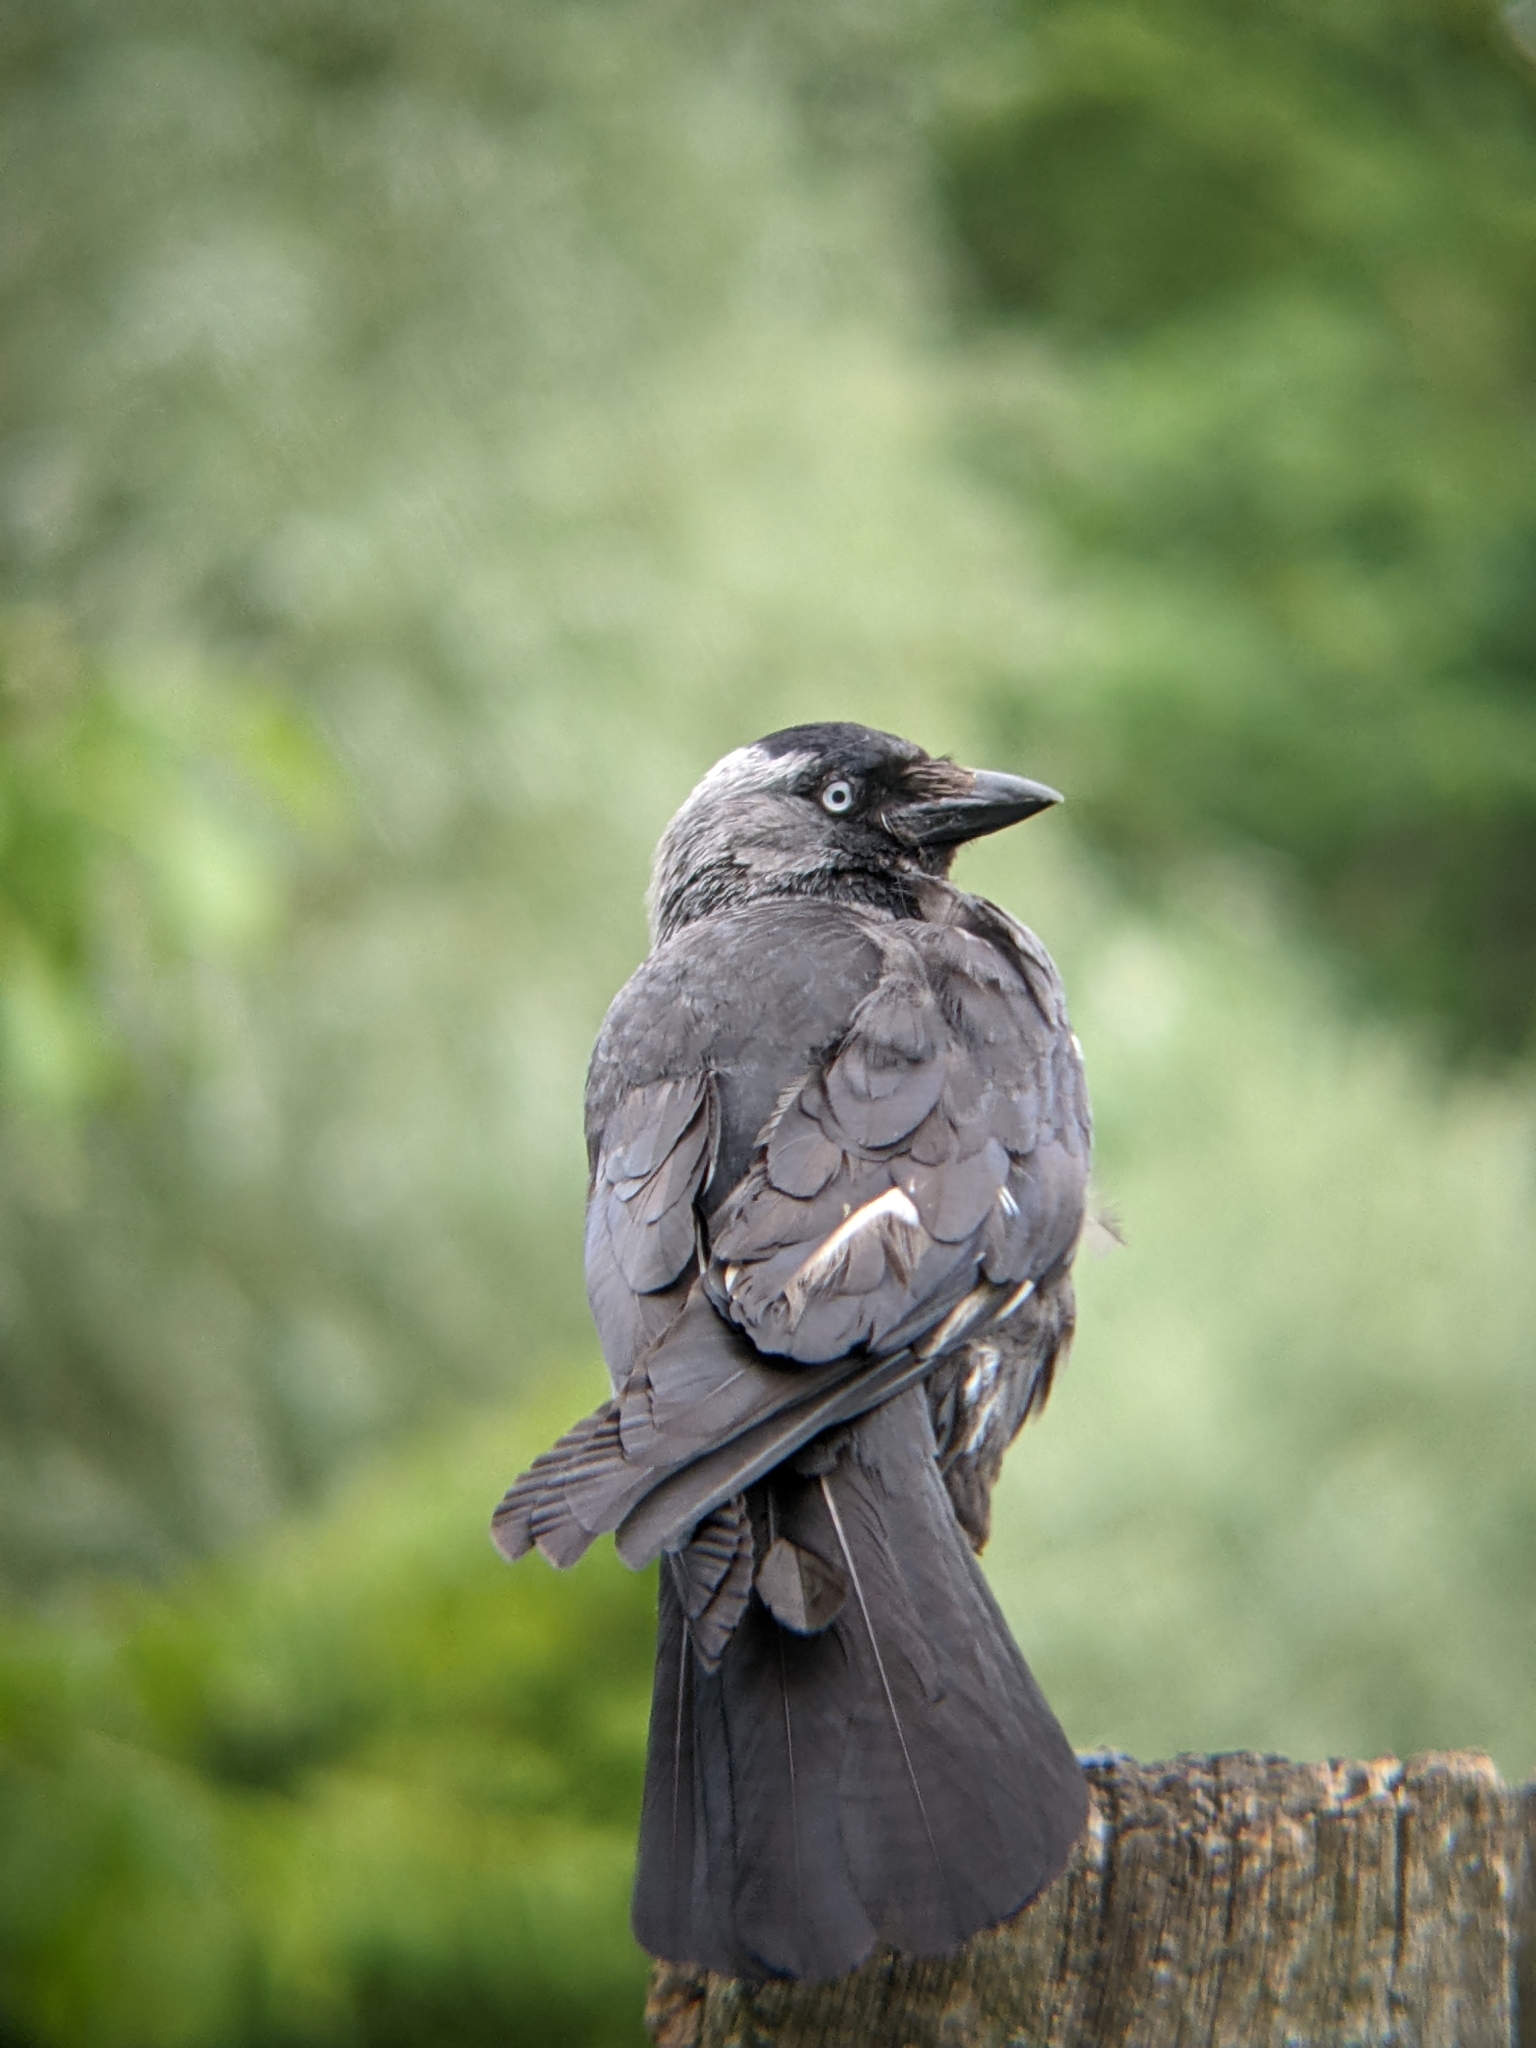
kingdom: Animalia
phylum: Chordata
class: Aves
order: Passeriformes
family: Corvidae
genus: Coloeus
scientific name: Coloeus monedula
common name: Western jackdaw
